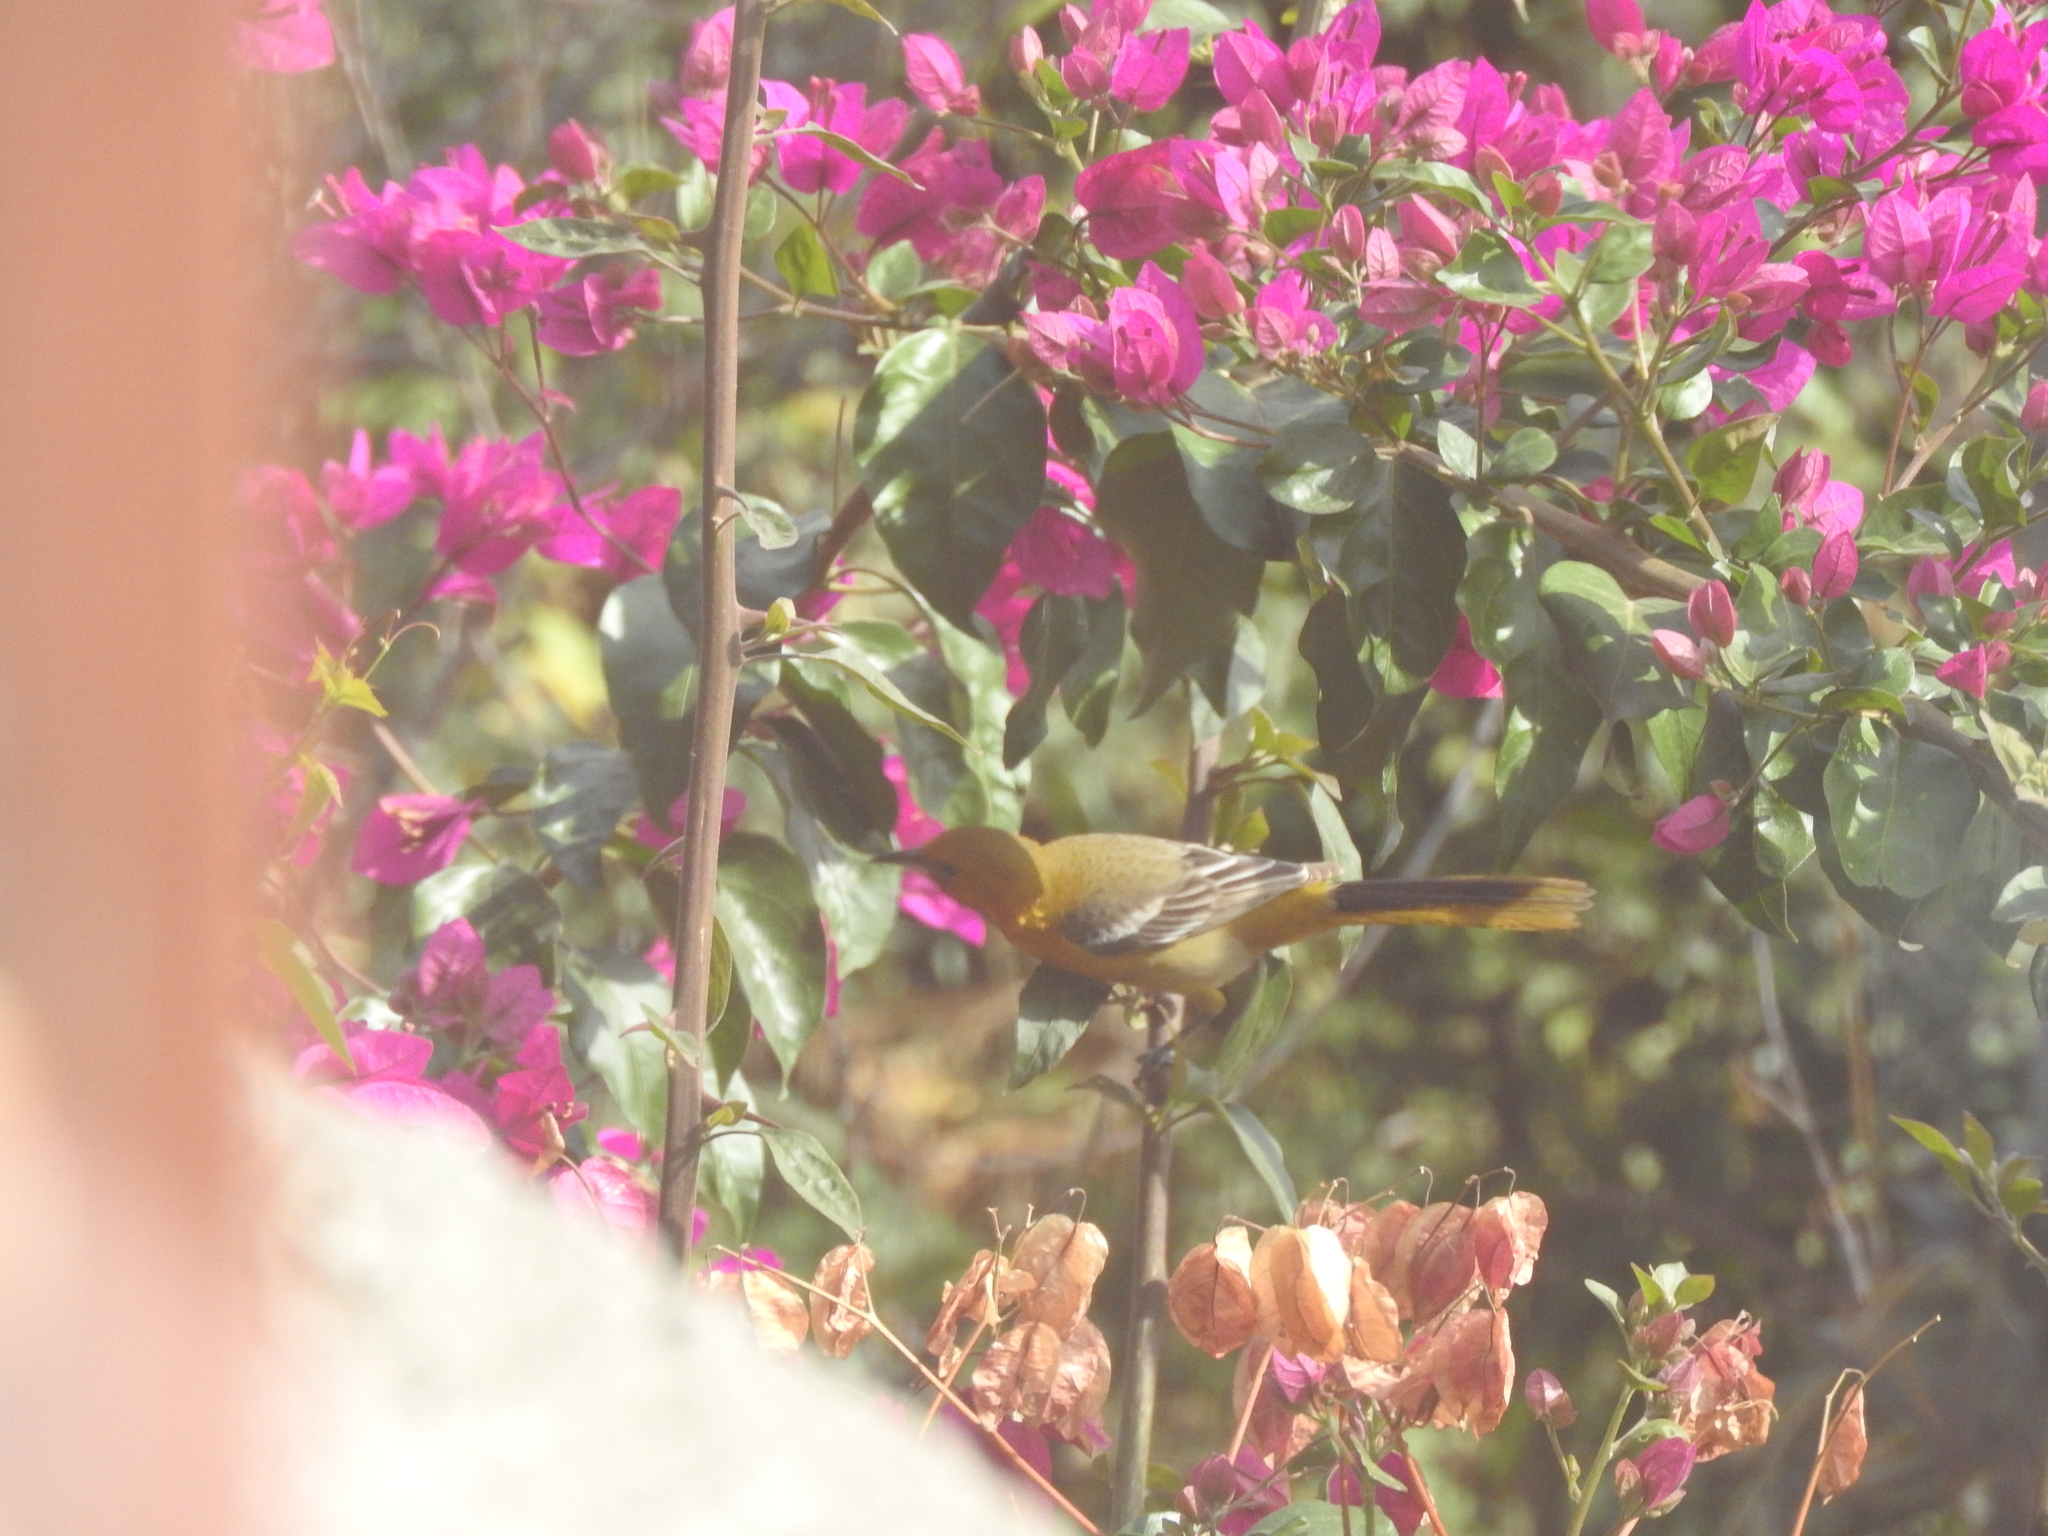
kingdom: Animalia
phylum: Chordata
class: Aves
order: Passeriformes
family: Icteridae
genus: Icterus
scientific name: Icterus pustulatus
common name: Streak-backed oriole
